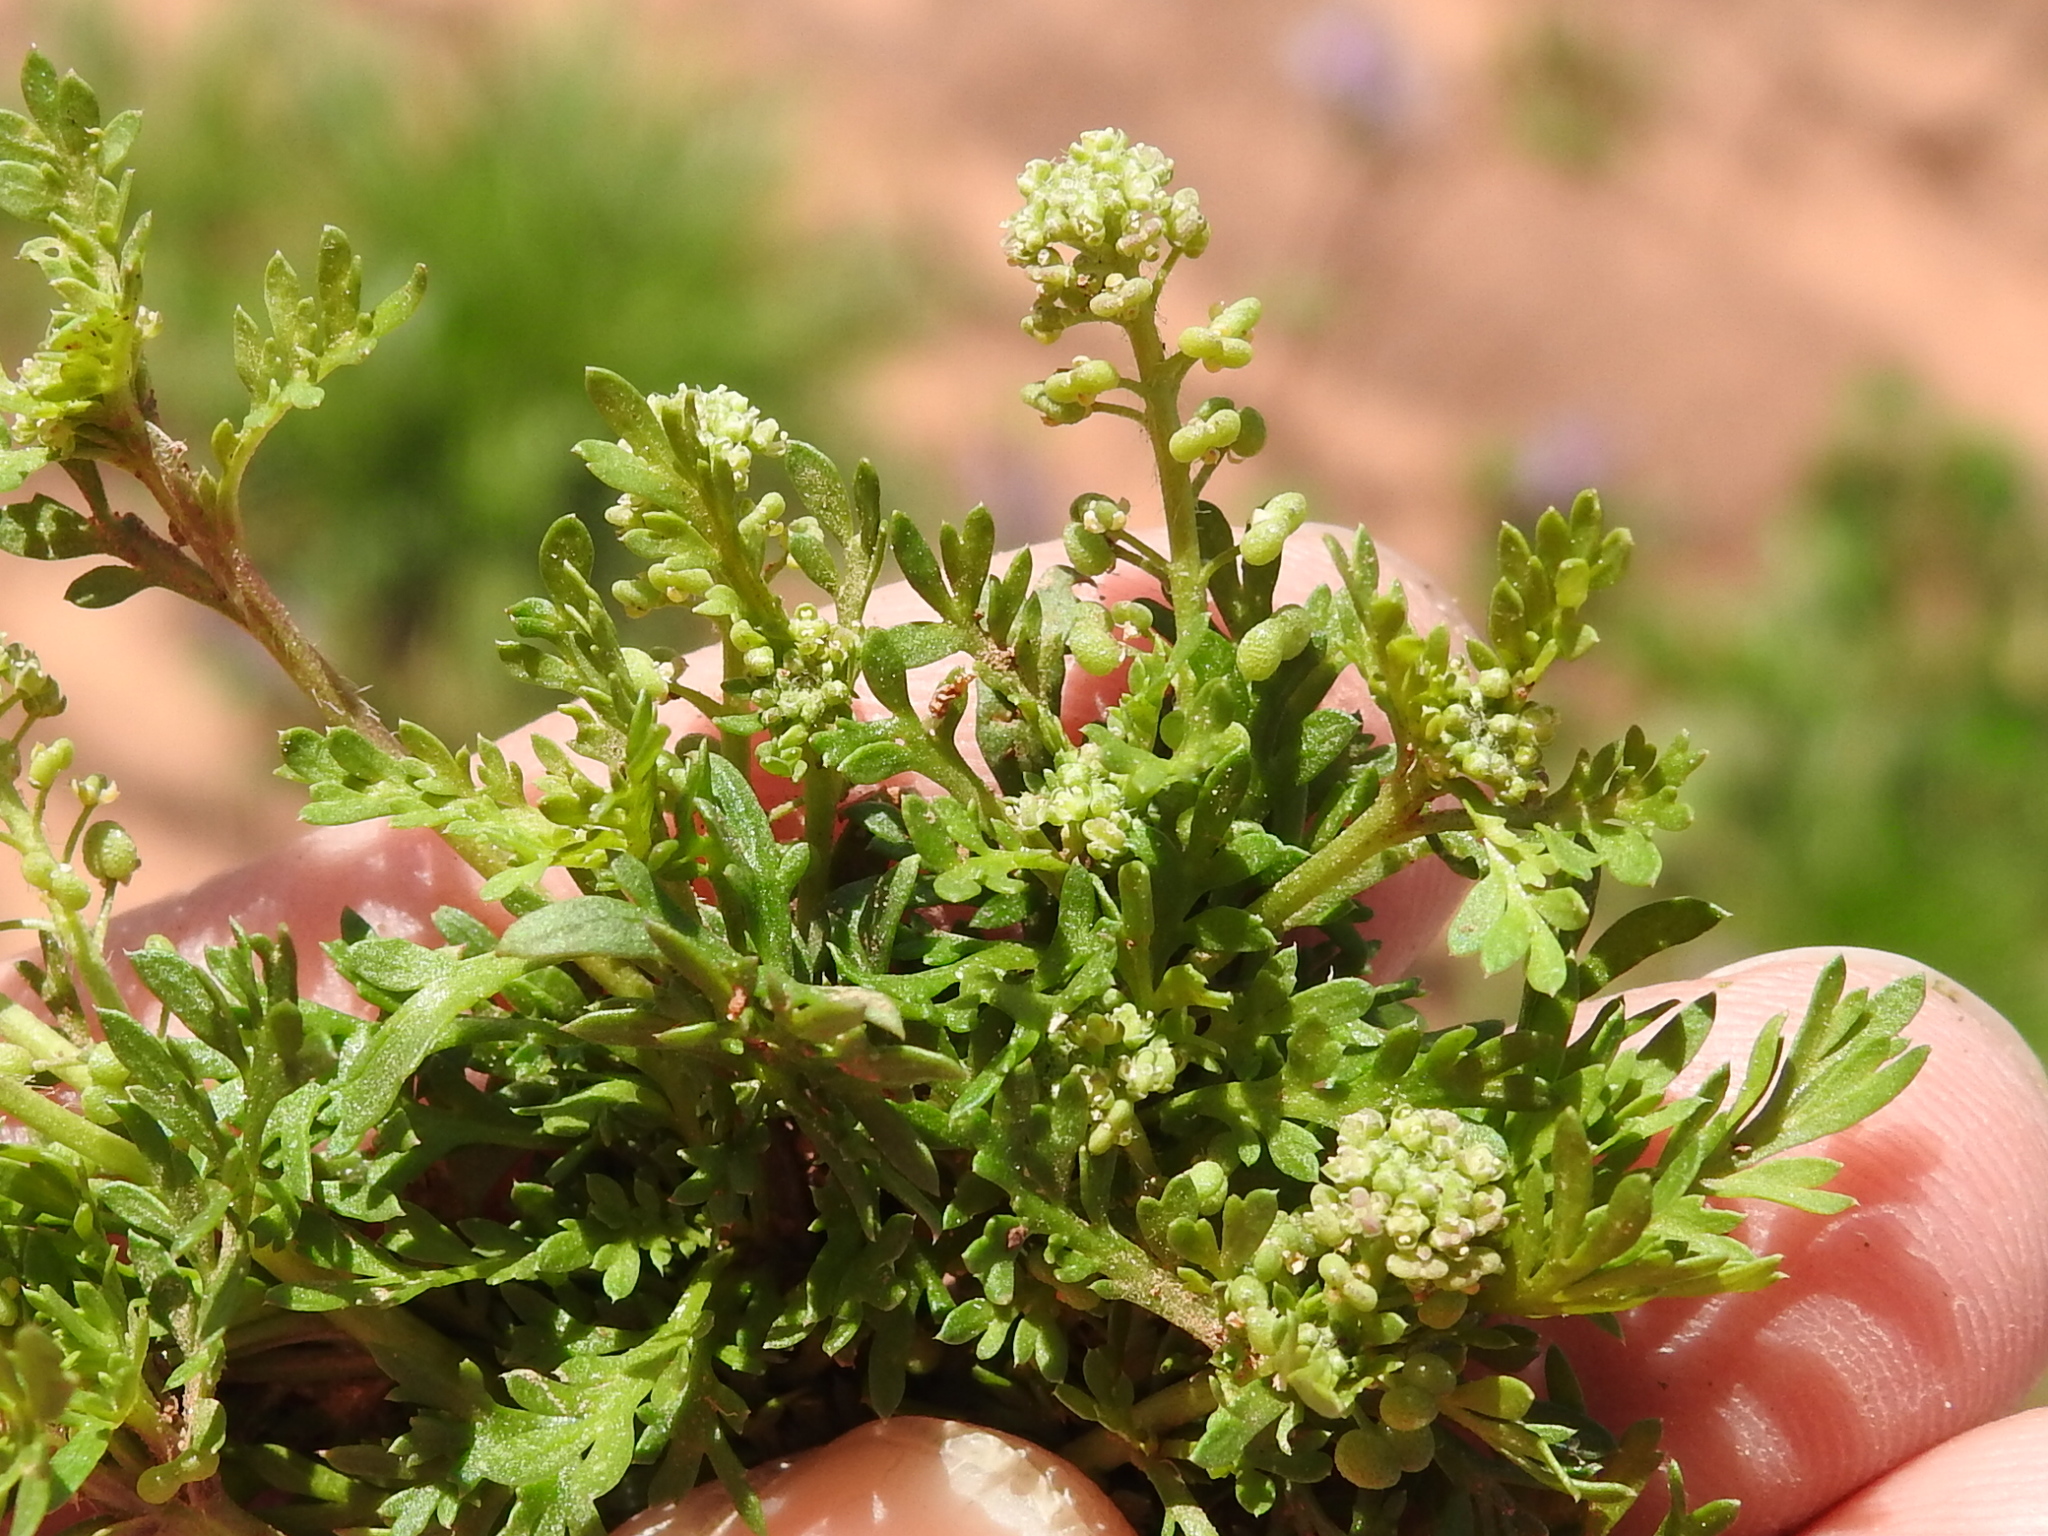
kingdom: Plantae
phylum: Tracheophyta
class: Magnoliopsida
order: Brassicales
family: Brassicaceae
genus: Lepidium
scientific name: Lepidium didymum
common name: Lesser swinecress
